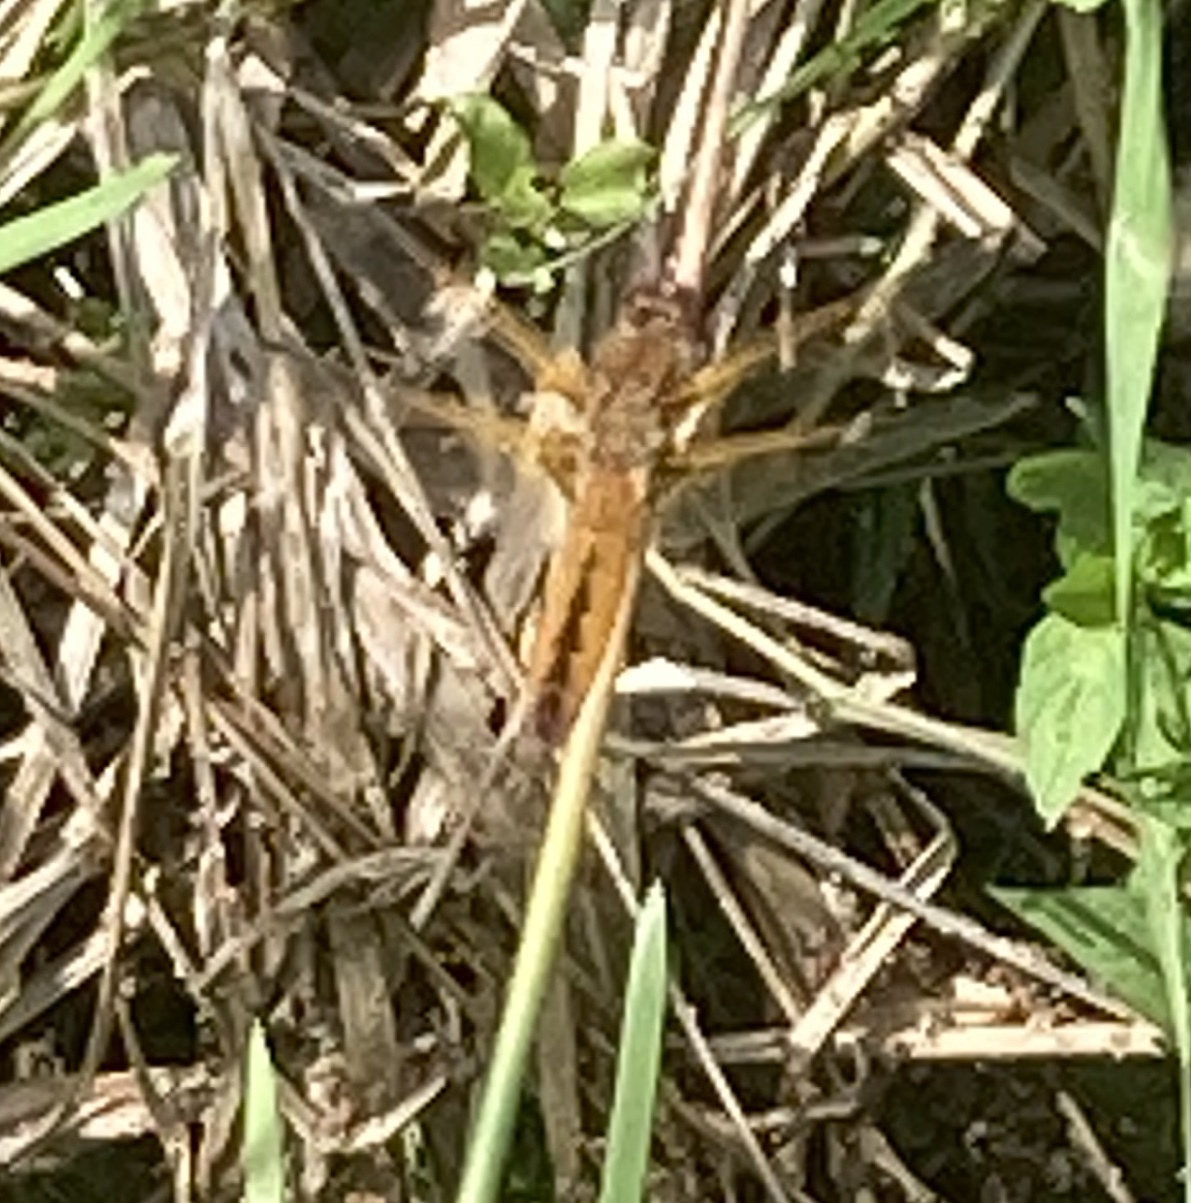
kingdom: Animalia
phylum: Arthropoda
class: Insecta
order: Odonata
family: Libellulidae
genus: Libellula
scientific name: Libellula fulva
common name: Blue chaser
